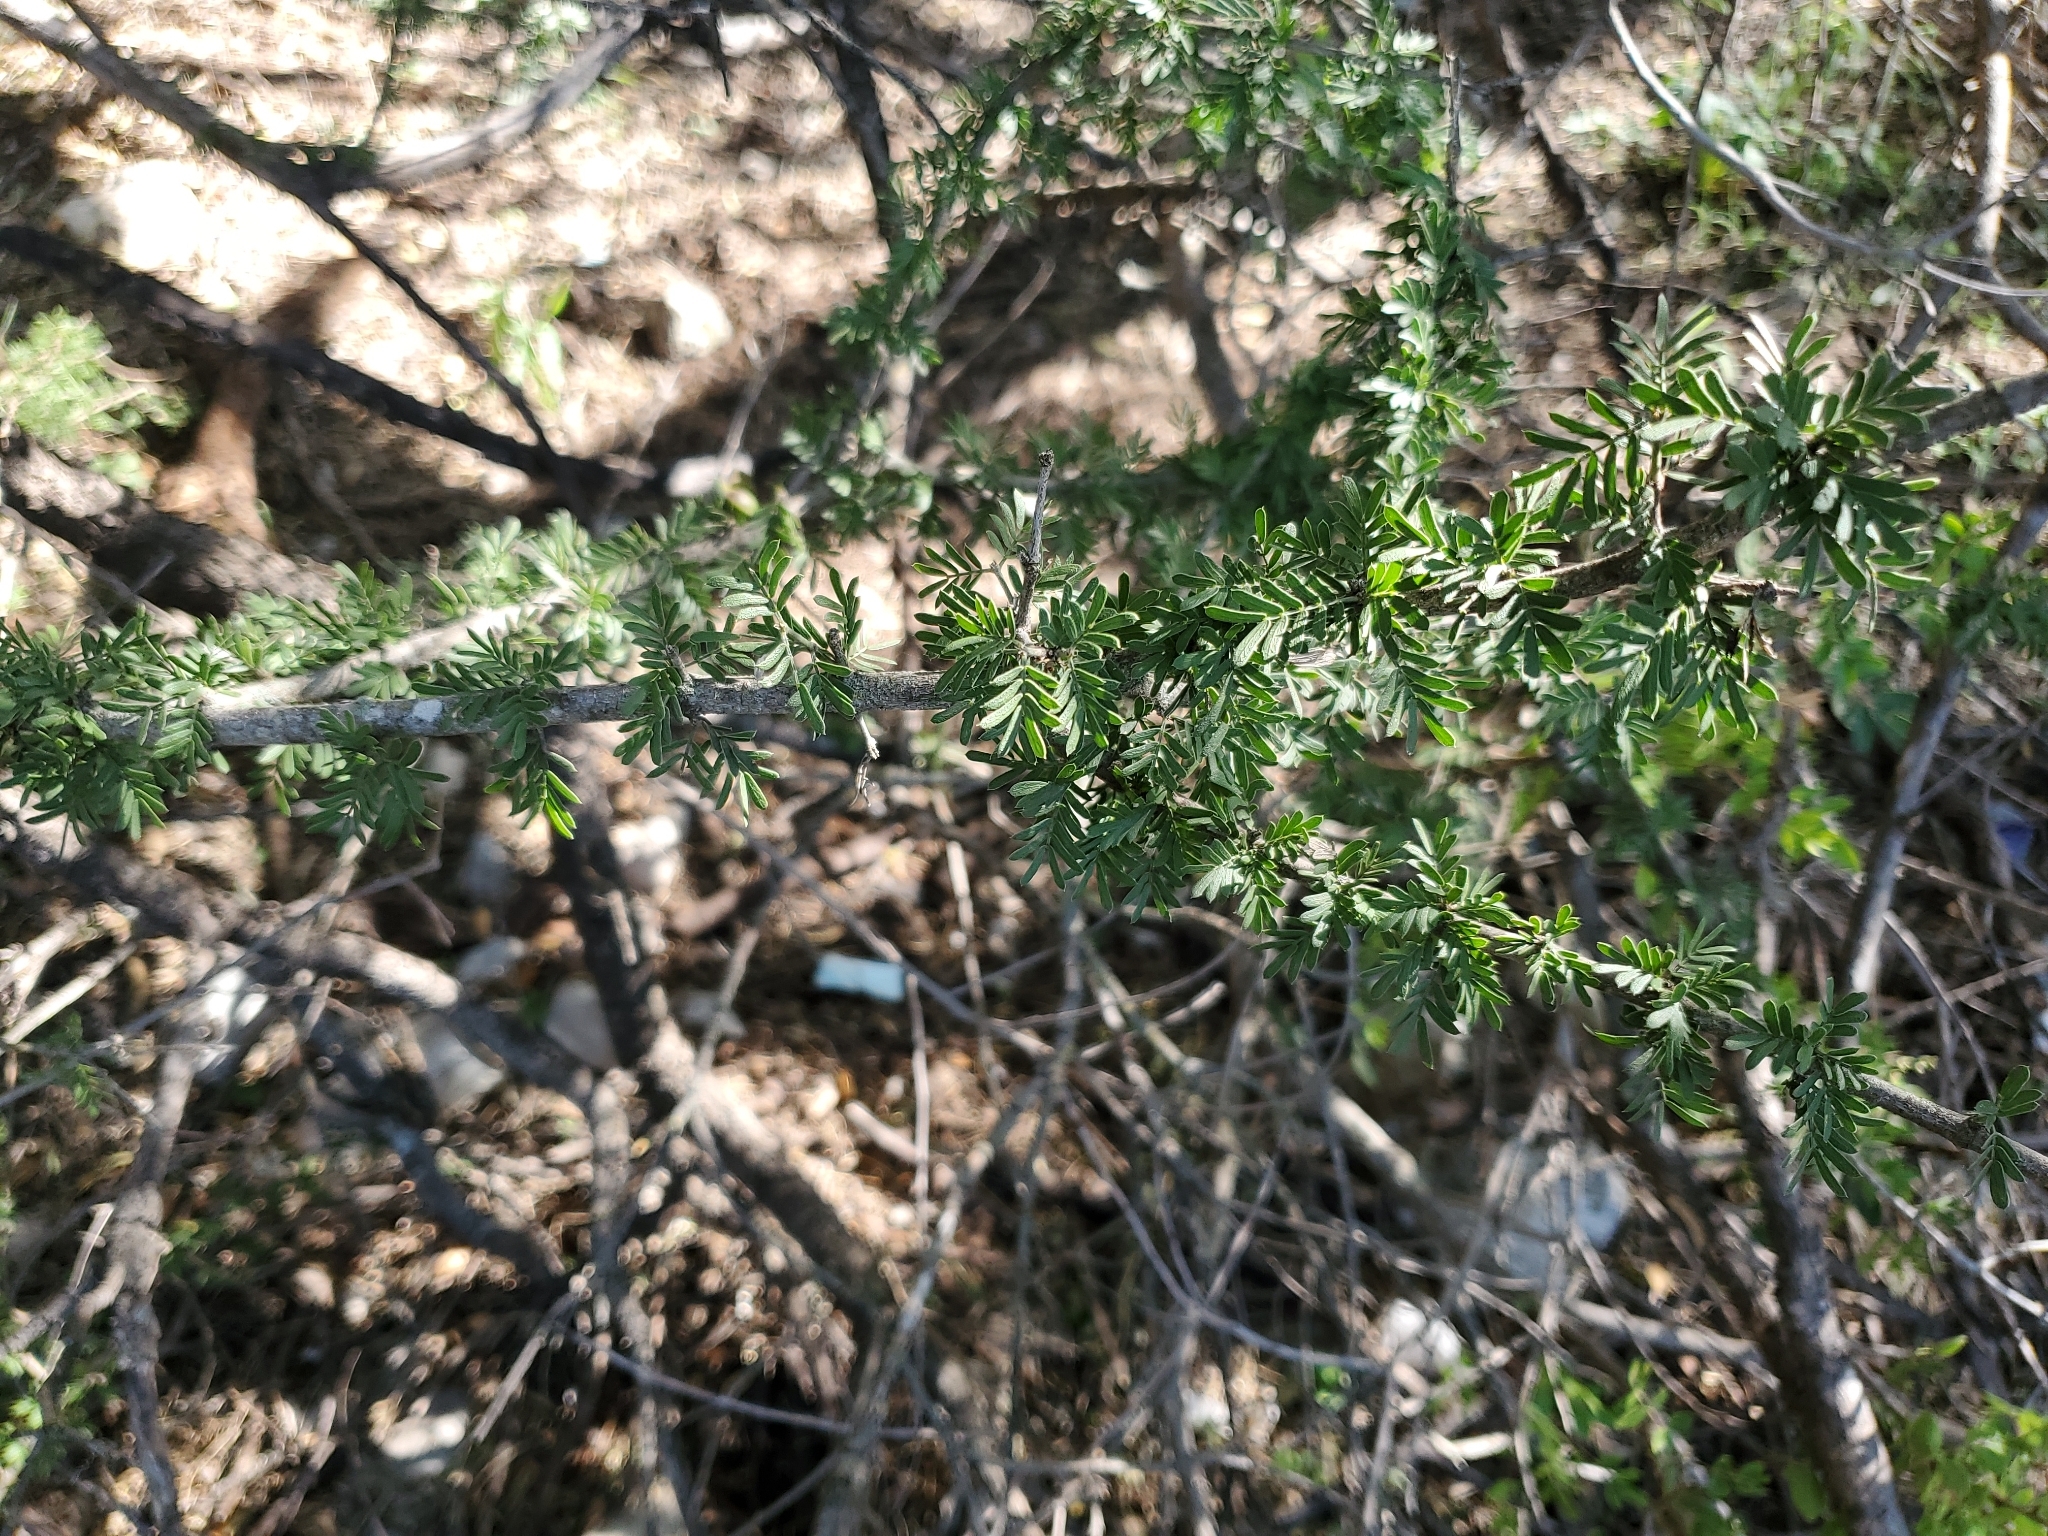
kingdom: Plantae
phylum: Tracheophyta
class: Magnoliopsida
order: Zygophyllales
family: Zygophyllaceae
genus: Porlieria
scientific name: Porlieria angustifolia
